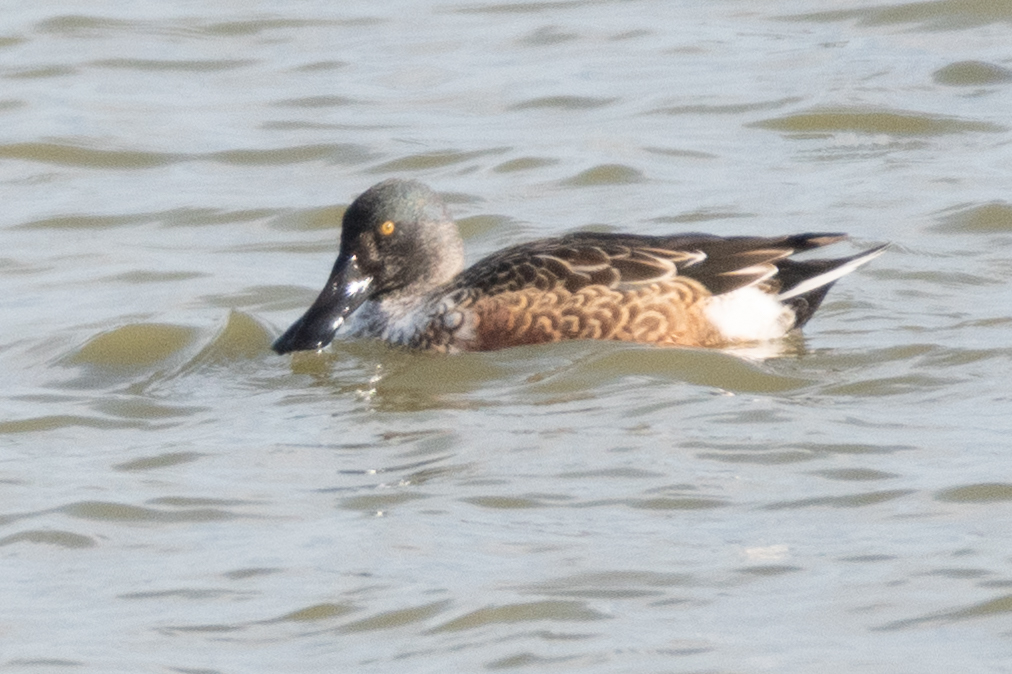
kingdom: Animalia
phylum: Chordata
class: Aves
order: Anseriformes
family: Anatidae
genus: Spatula
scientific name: Spatula clypeata
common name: Northern shoveler
